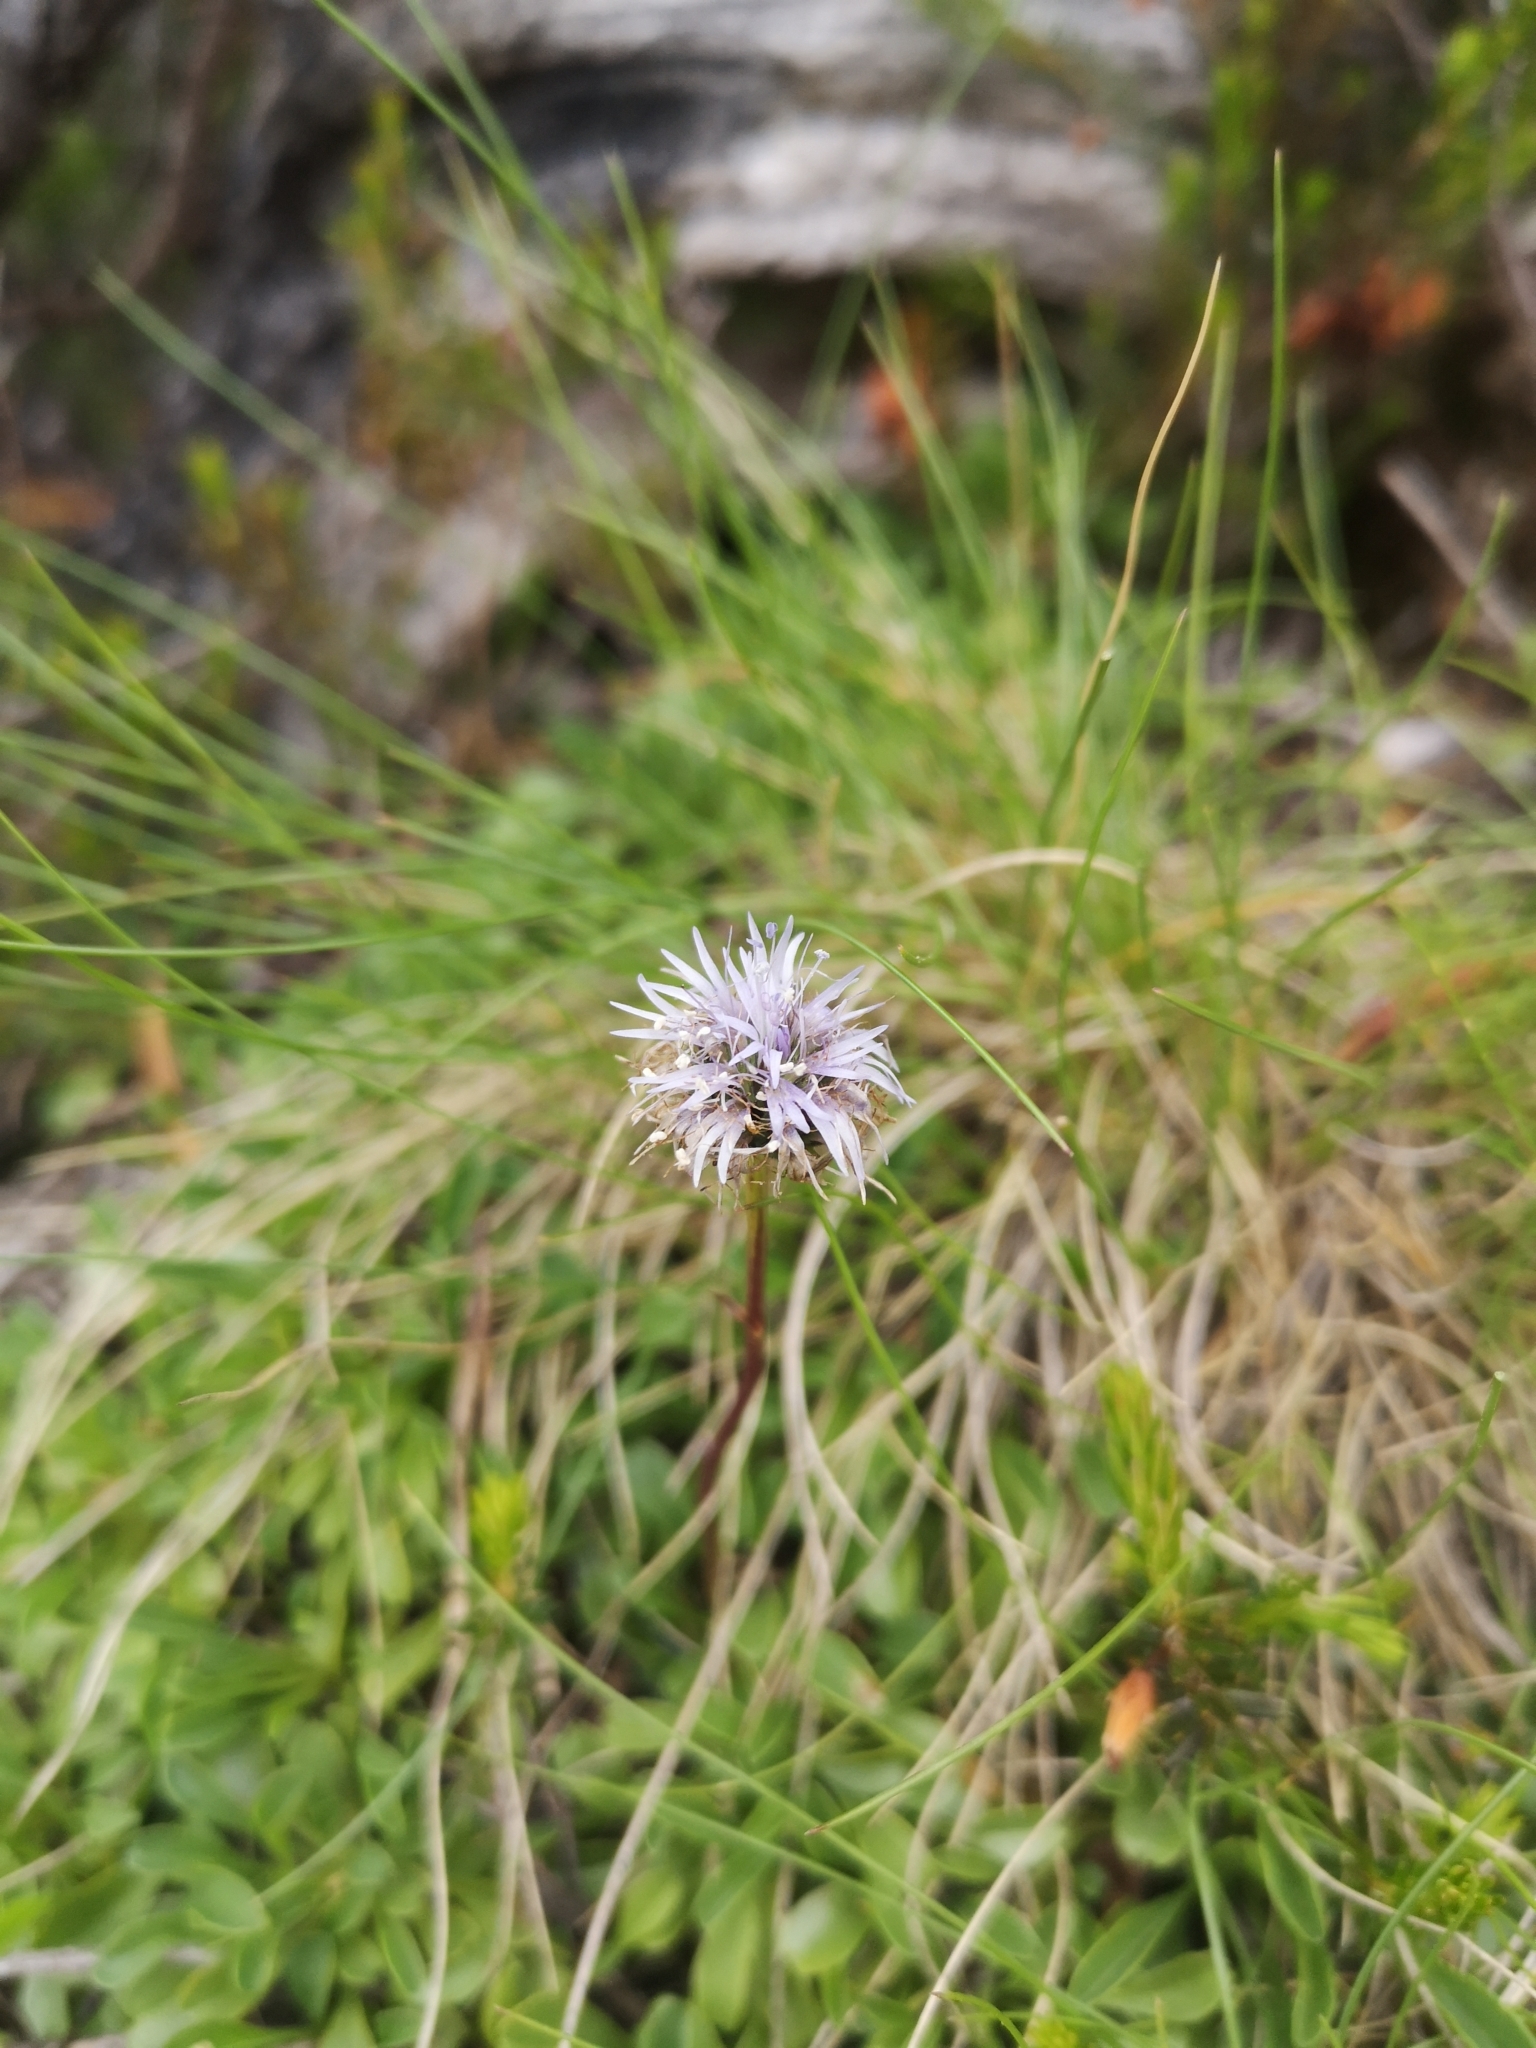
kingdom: Plantae
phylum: Tracheophyta
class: Magnoliopsida
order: Lamiales
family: Plantaginaceae
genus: Globularia
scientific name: Globularia cordifolia
